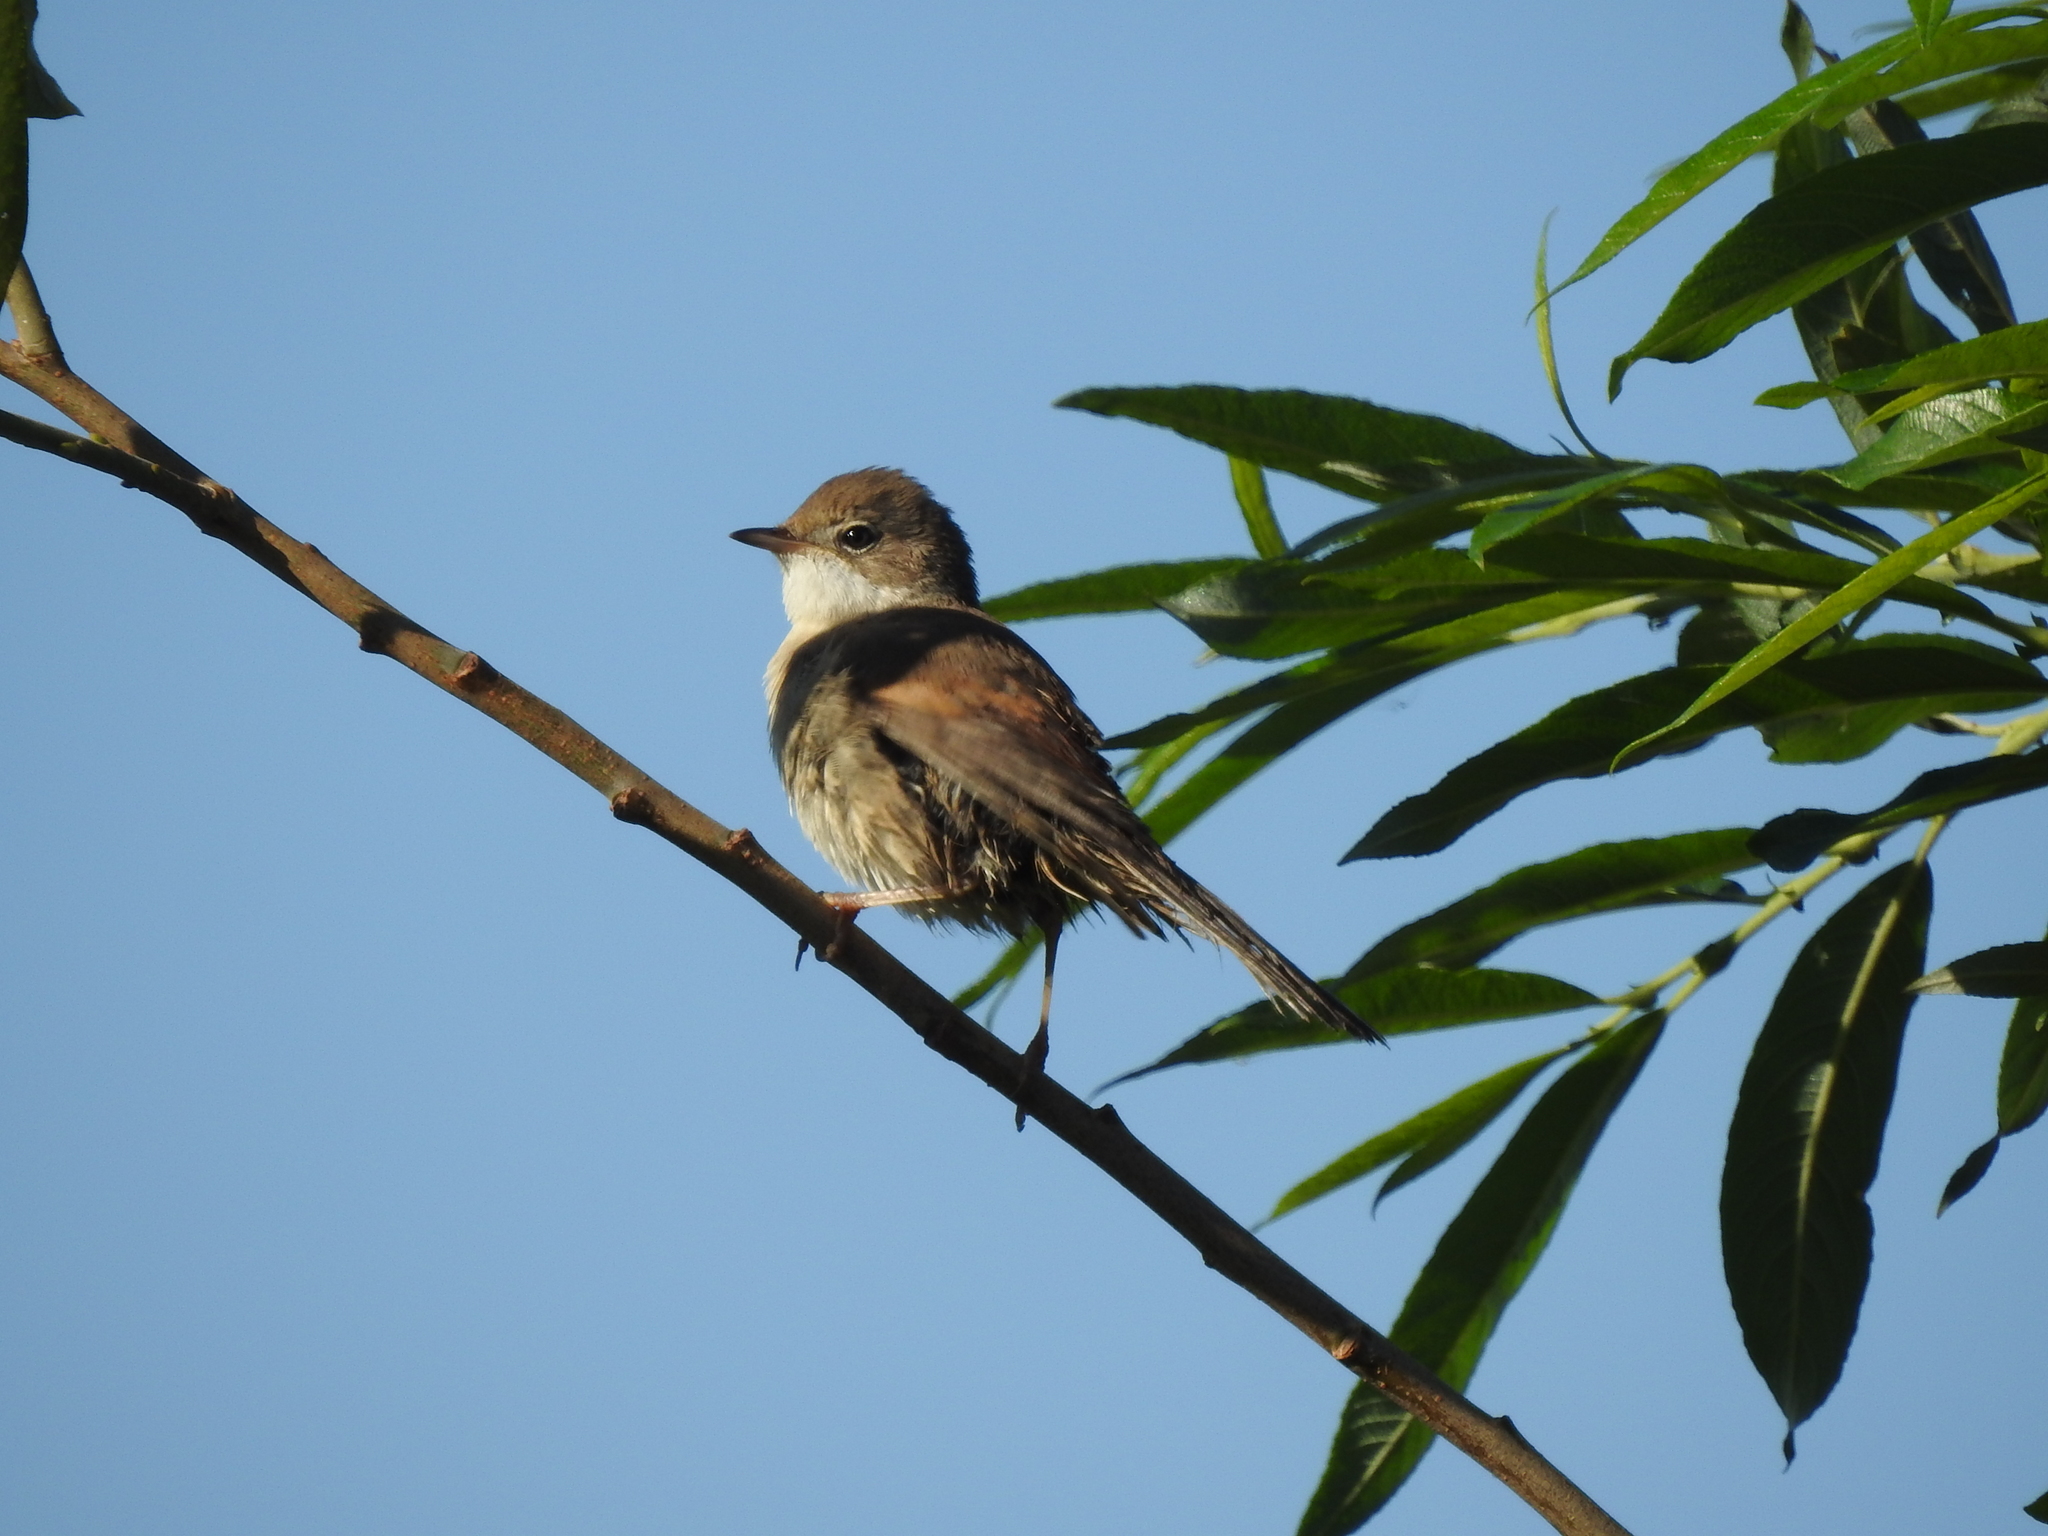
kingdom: Animalia
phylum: Chordata
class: Aves
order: Passeriformes
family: Sylviidae
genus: Sylvia
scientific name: Sylvia communis
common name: Common whitethroat
